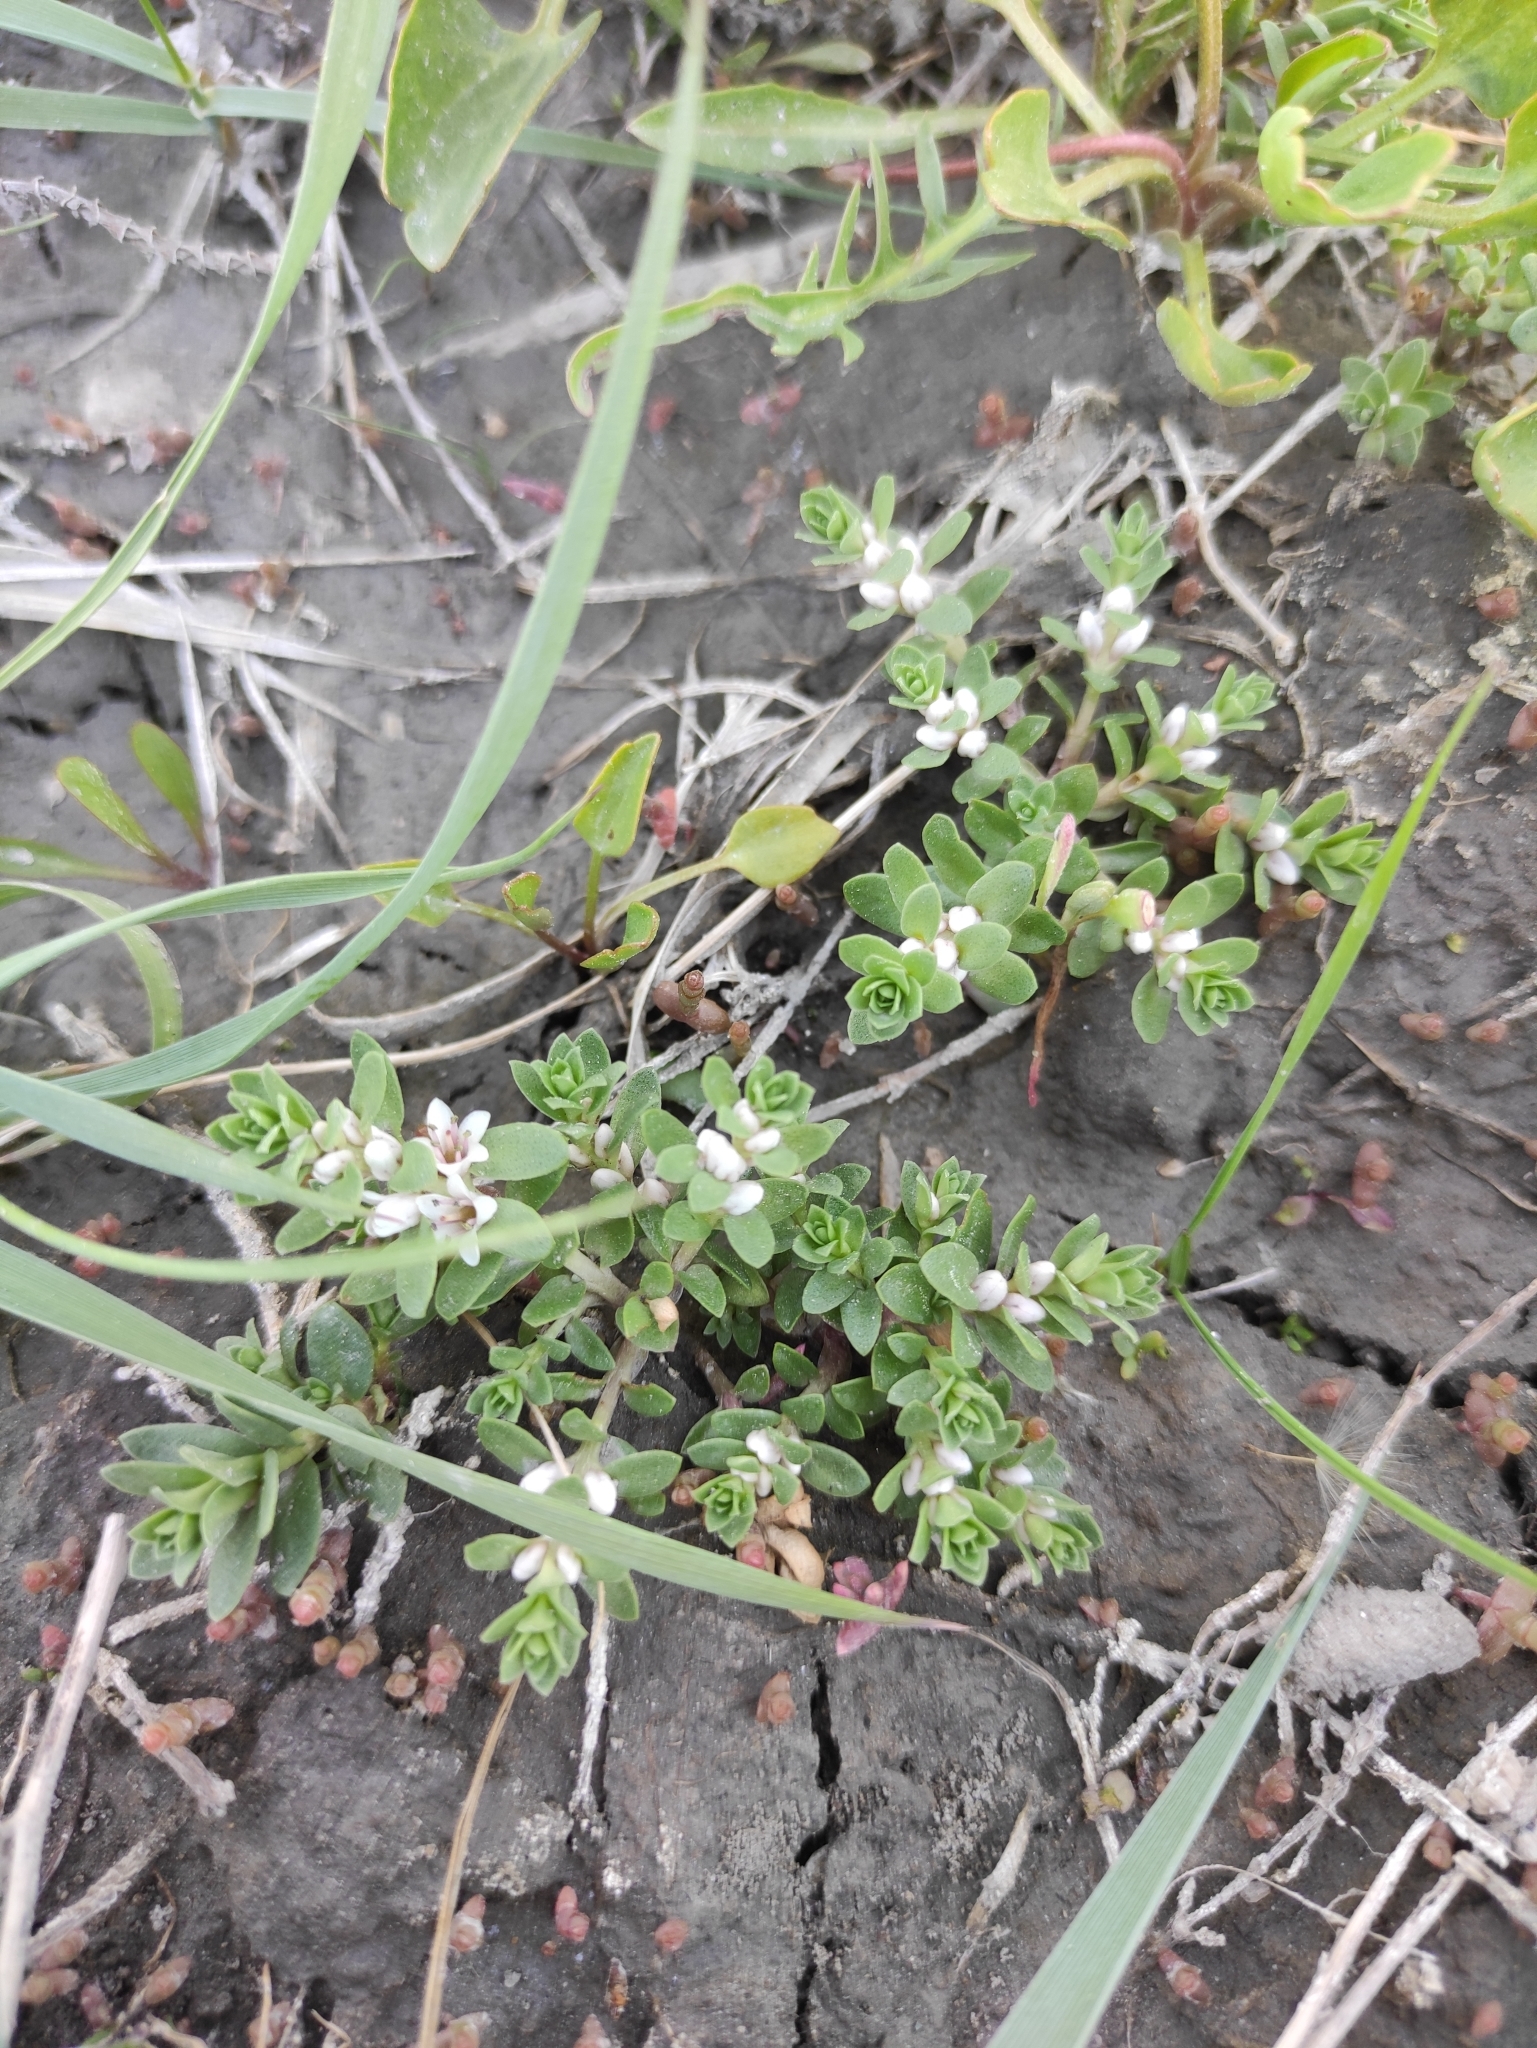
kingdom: Plantae
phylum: Tracheophyta
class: Magnoliopsida
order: Ericales
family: Primulaceae
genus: Lysimachia
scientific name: Lysimachia maritima
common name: Sea milkwort
